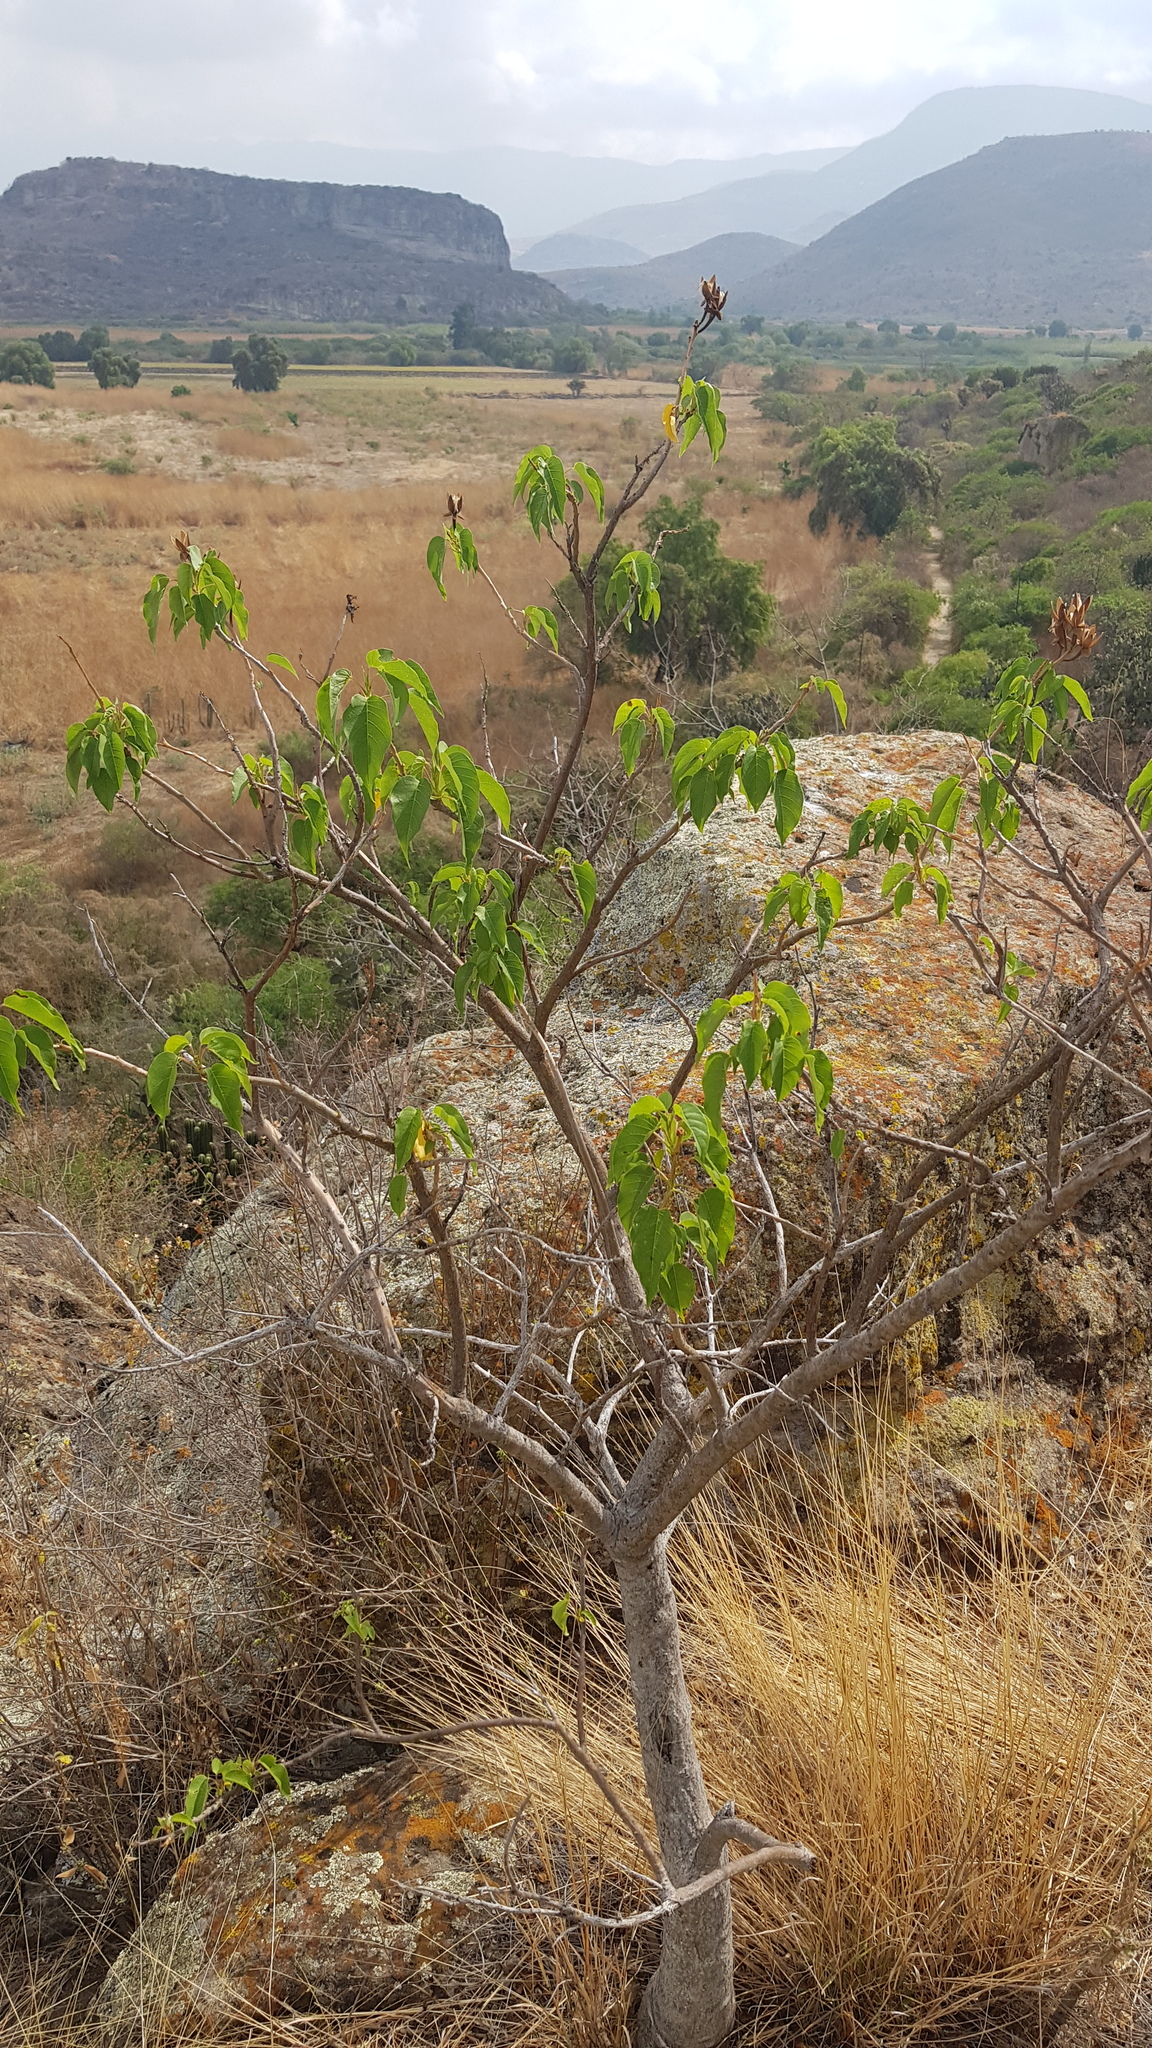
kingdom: Plantae
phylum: Tracheophyta
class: Magnoliopsida
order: Solanales
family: Convolvulaceae
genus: Ipomoea
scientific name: Ipomoea pauciflora
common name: Tree morningglory
